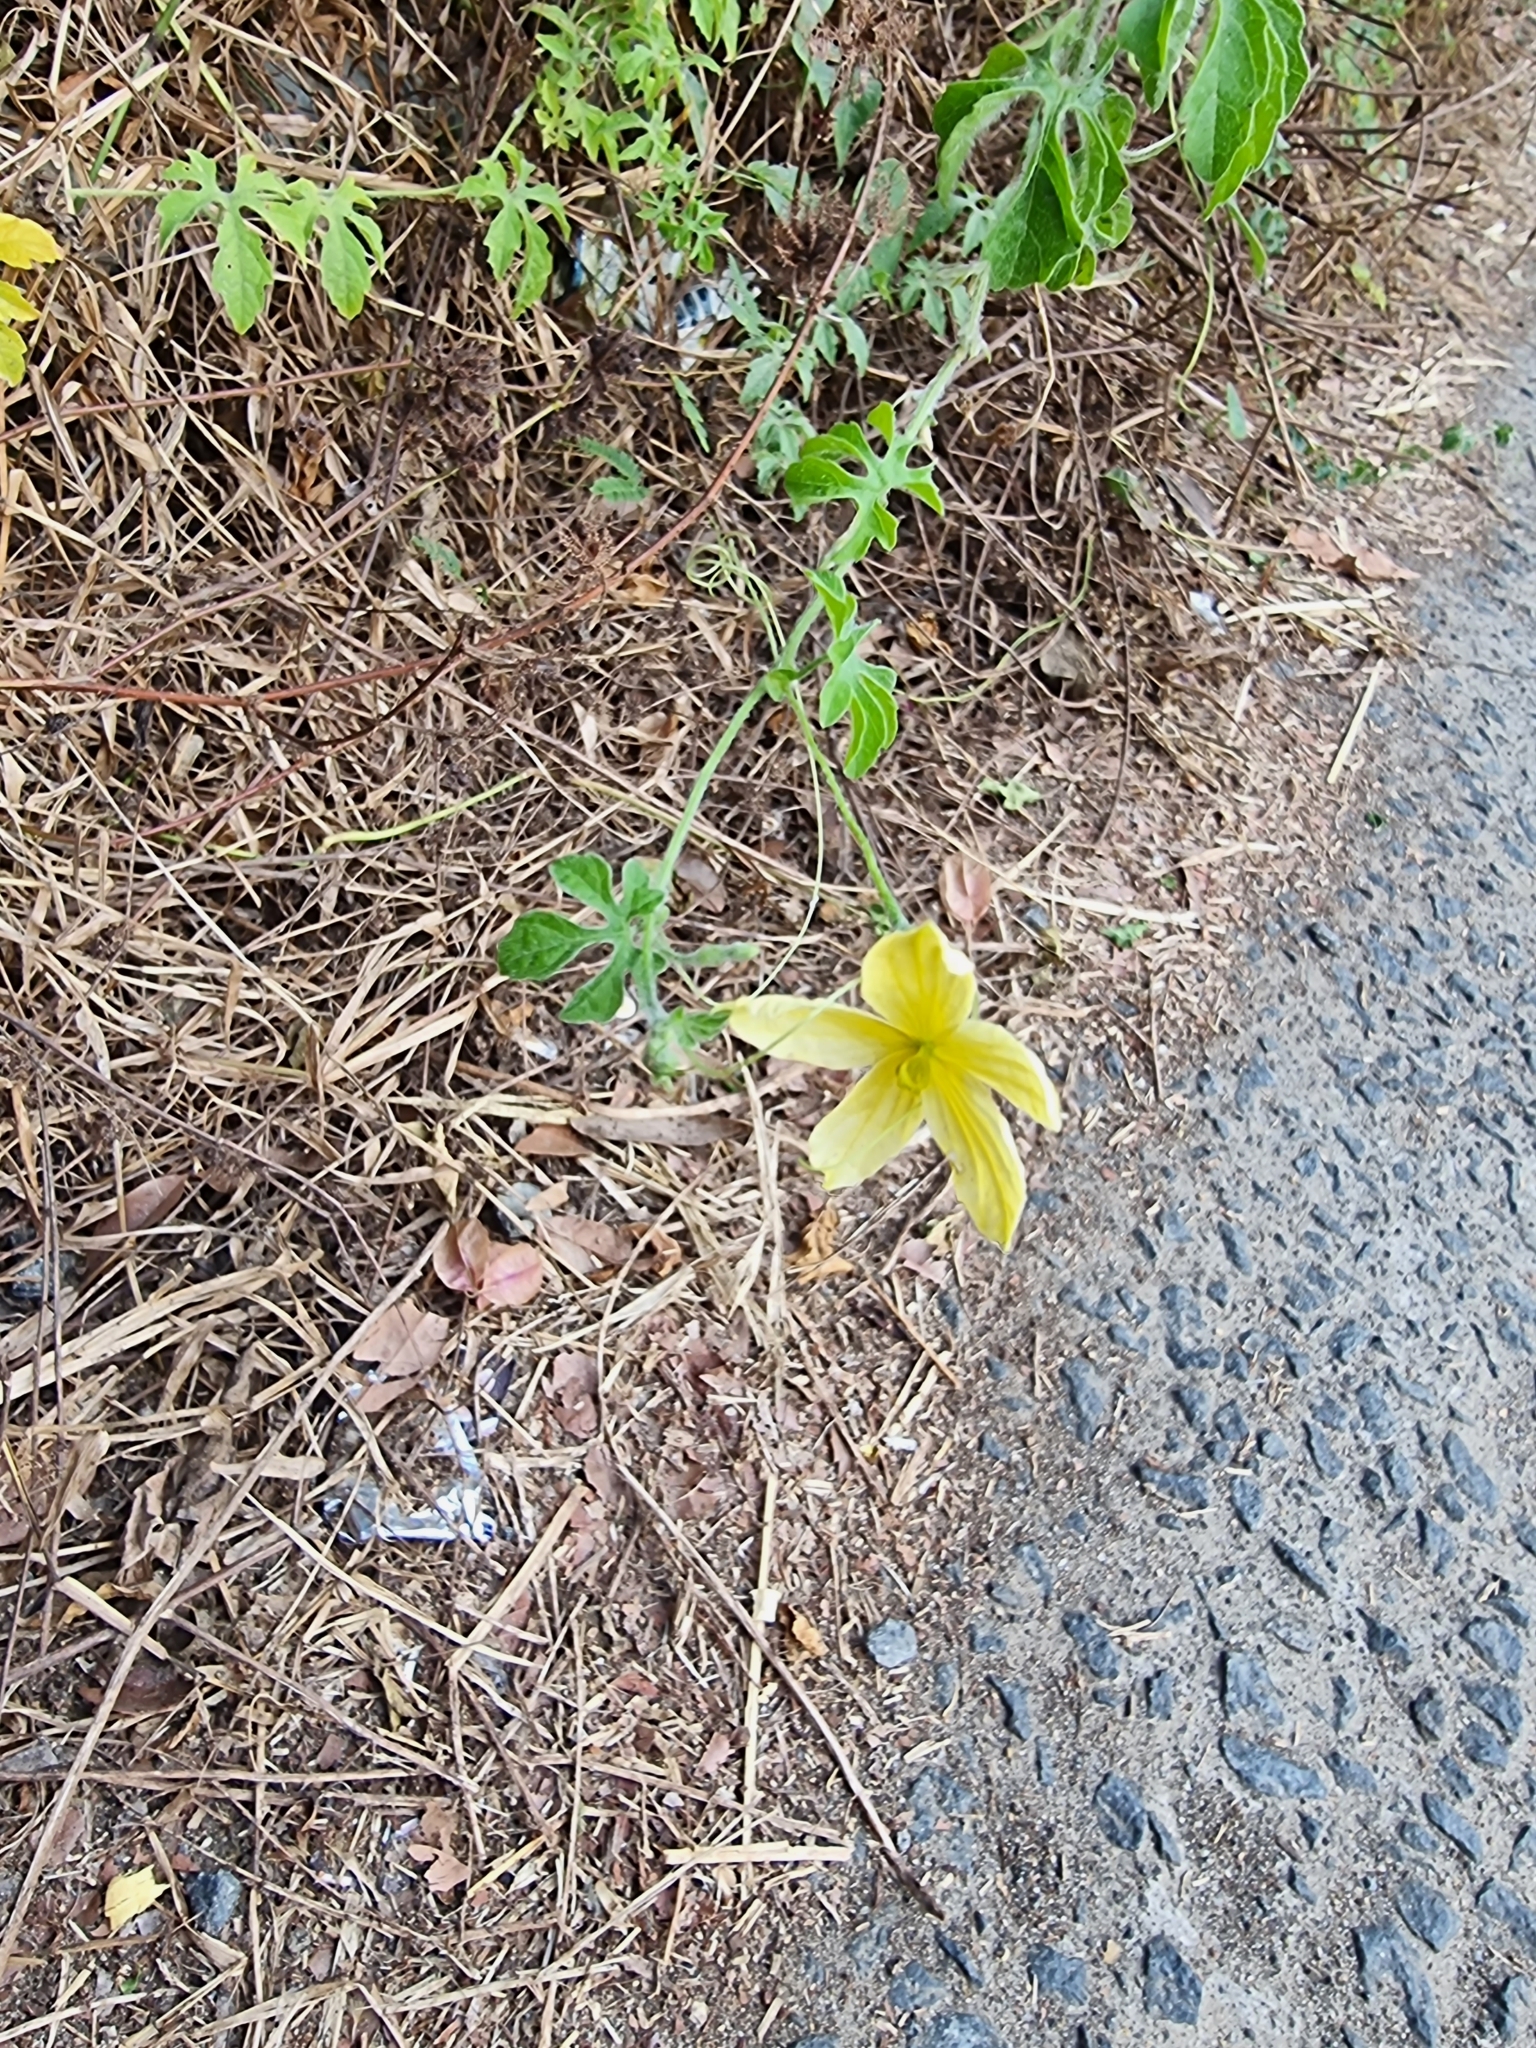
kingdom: Plantae
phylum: Tracheophyta
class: Magnoliopsida
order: Cucurbitales
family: Cucurbitaceae
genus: Momordica
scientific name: Momordica charantia
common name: Balsampear
